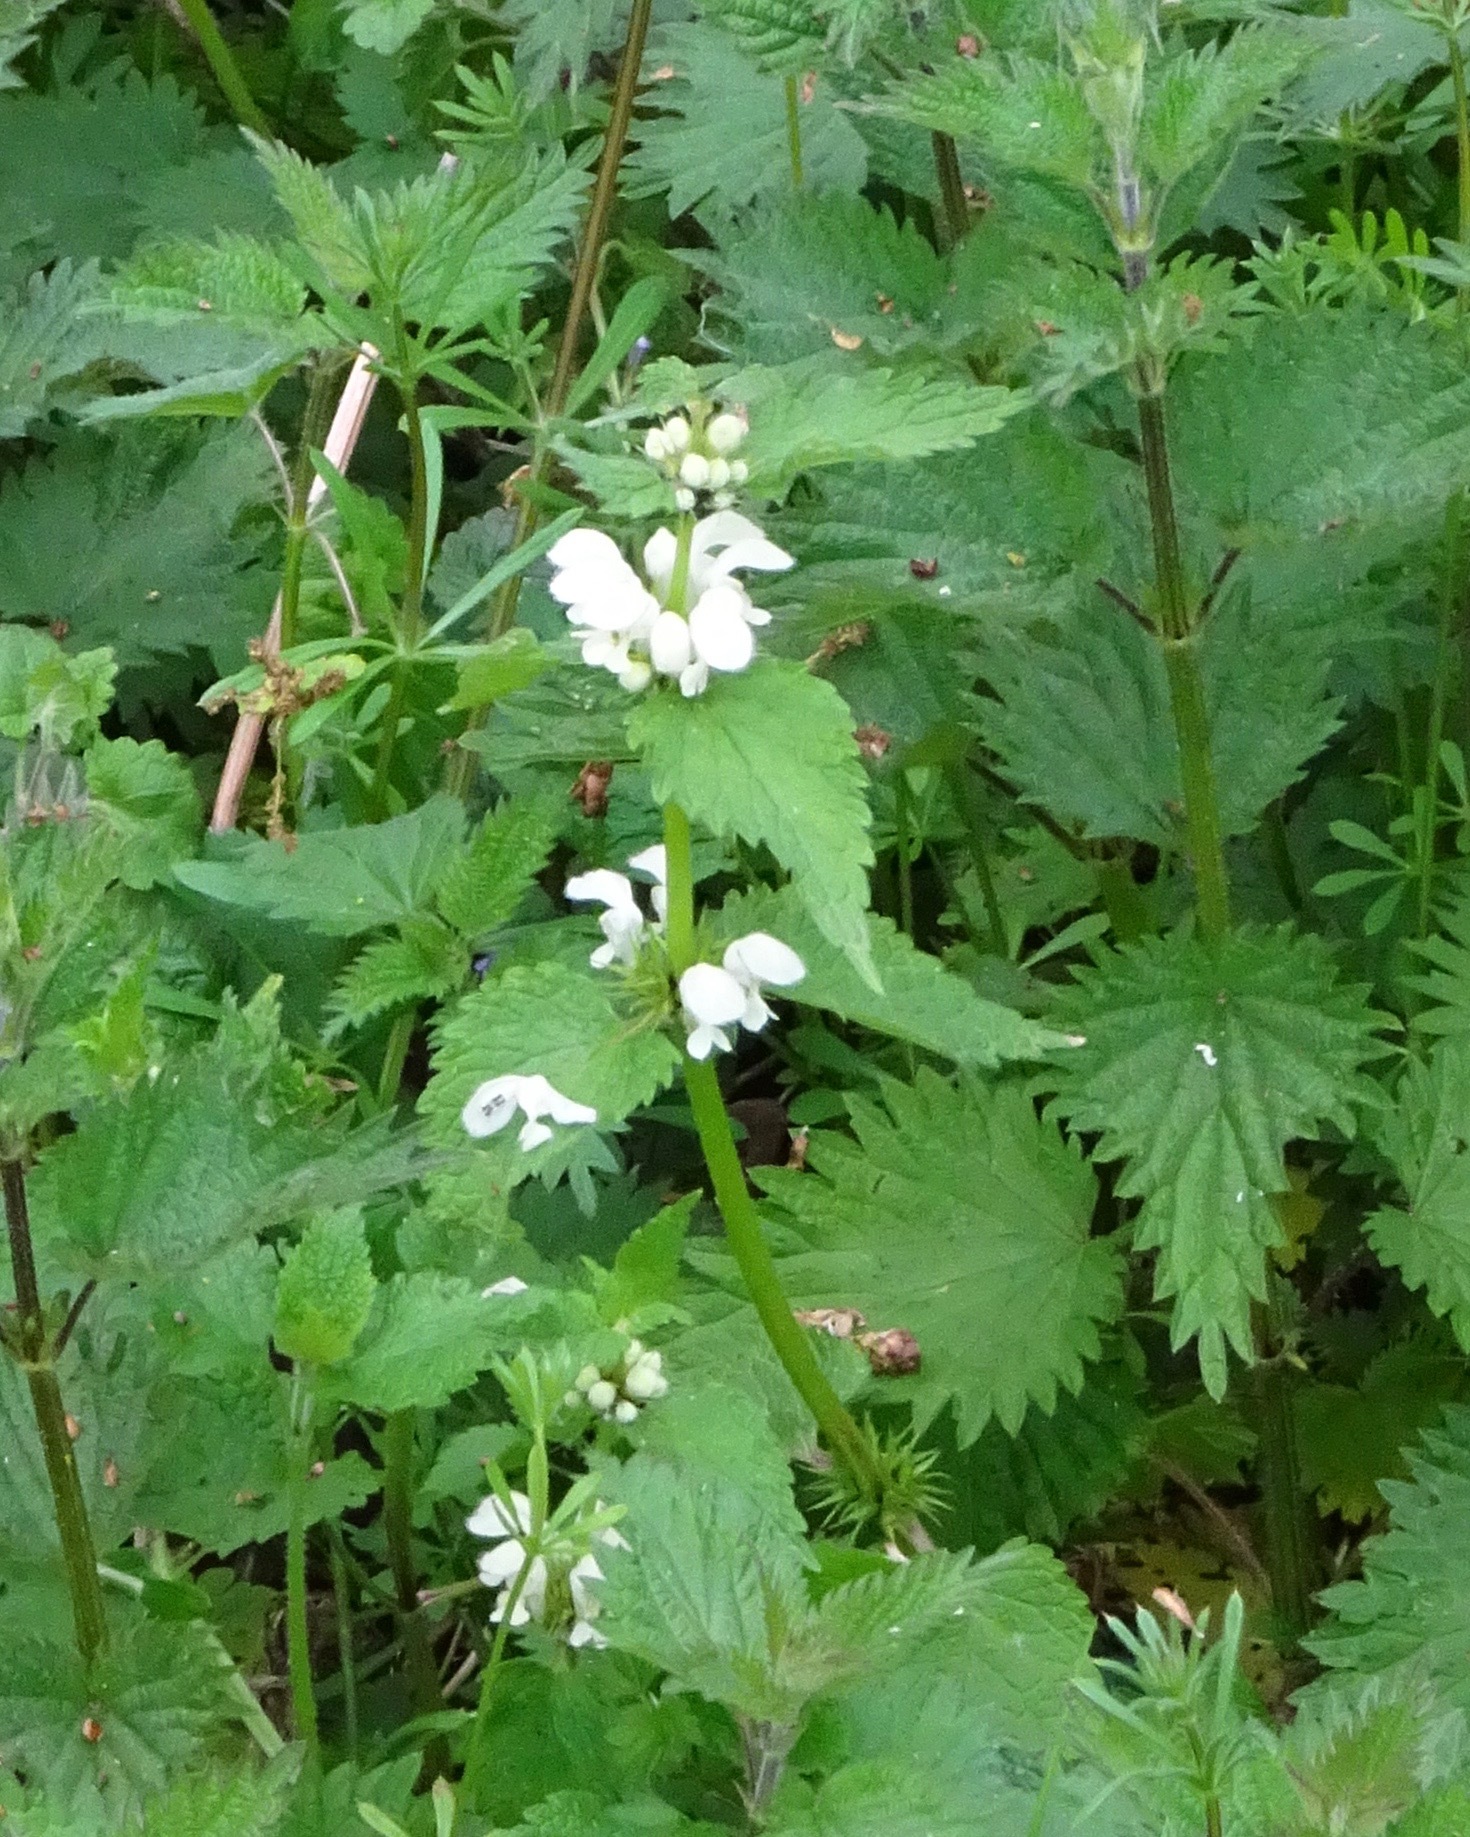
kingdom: Plantae
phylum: Tracheophyta
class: Magnoliopsida
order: Lamiales
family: Lamiaceae
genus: Lamium
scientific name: Lamium album
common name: White dead-nettle
